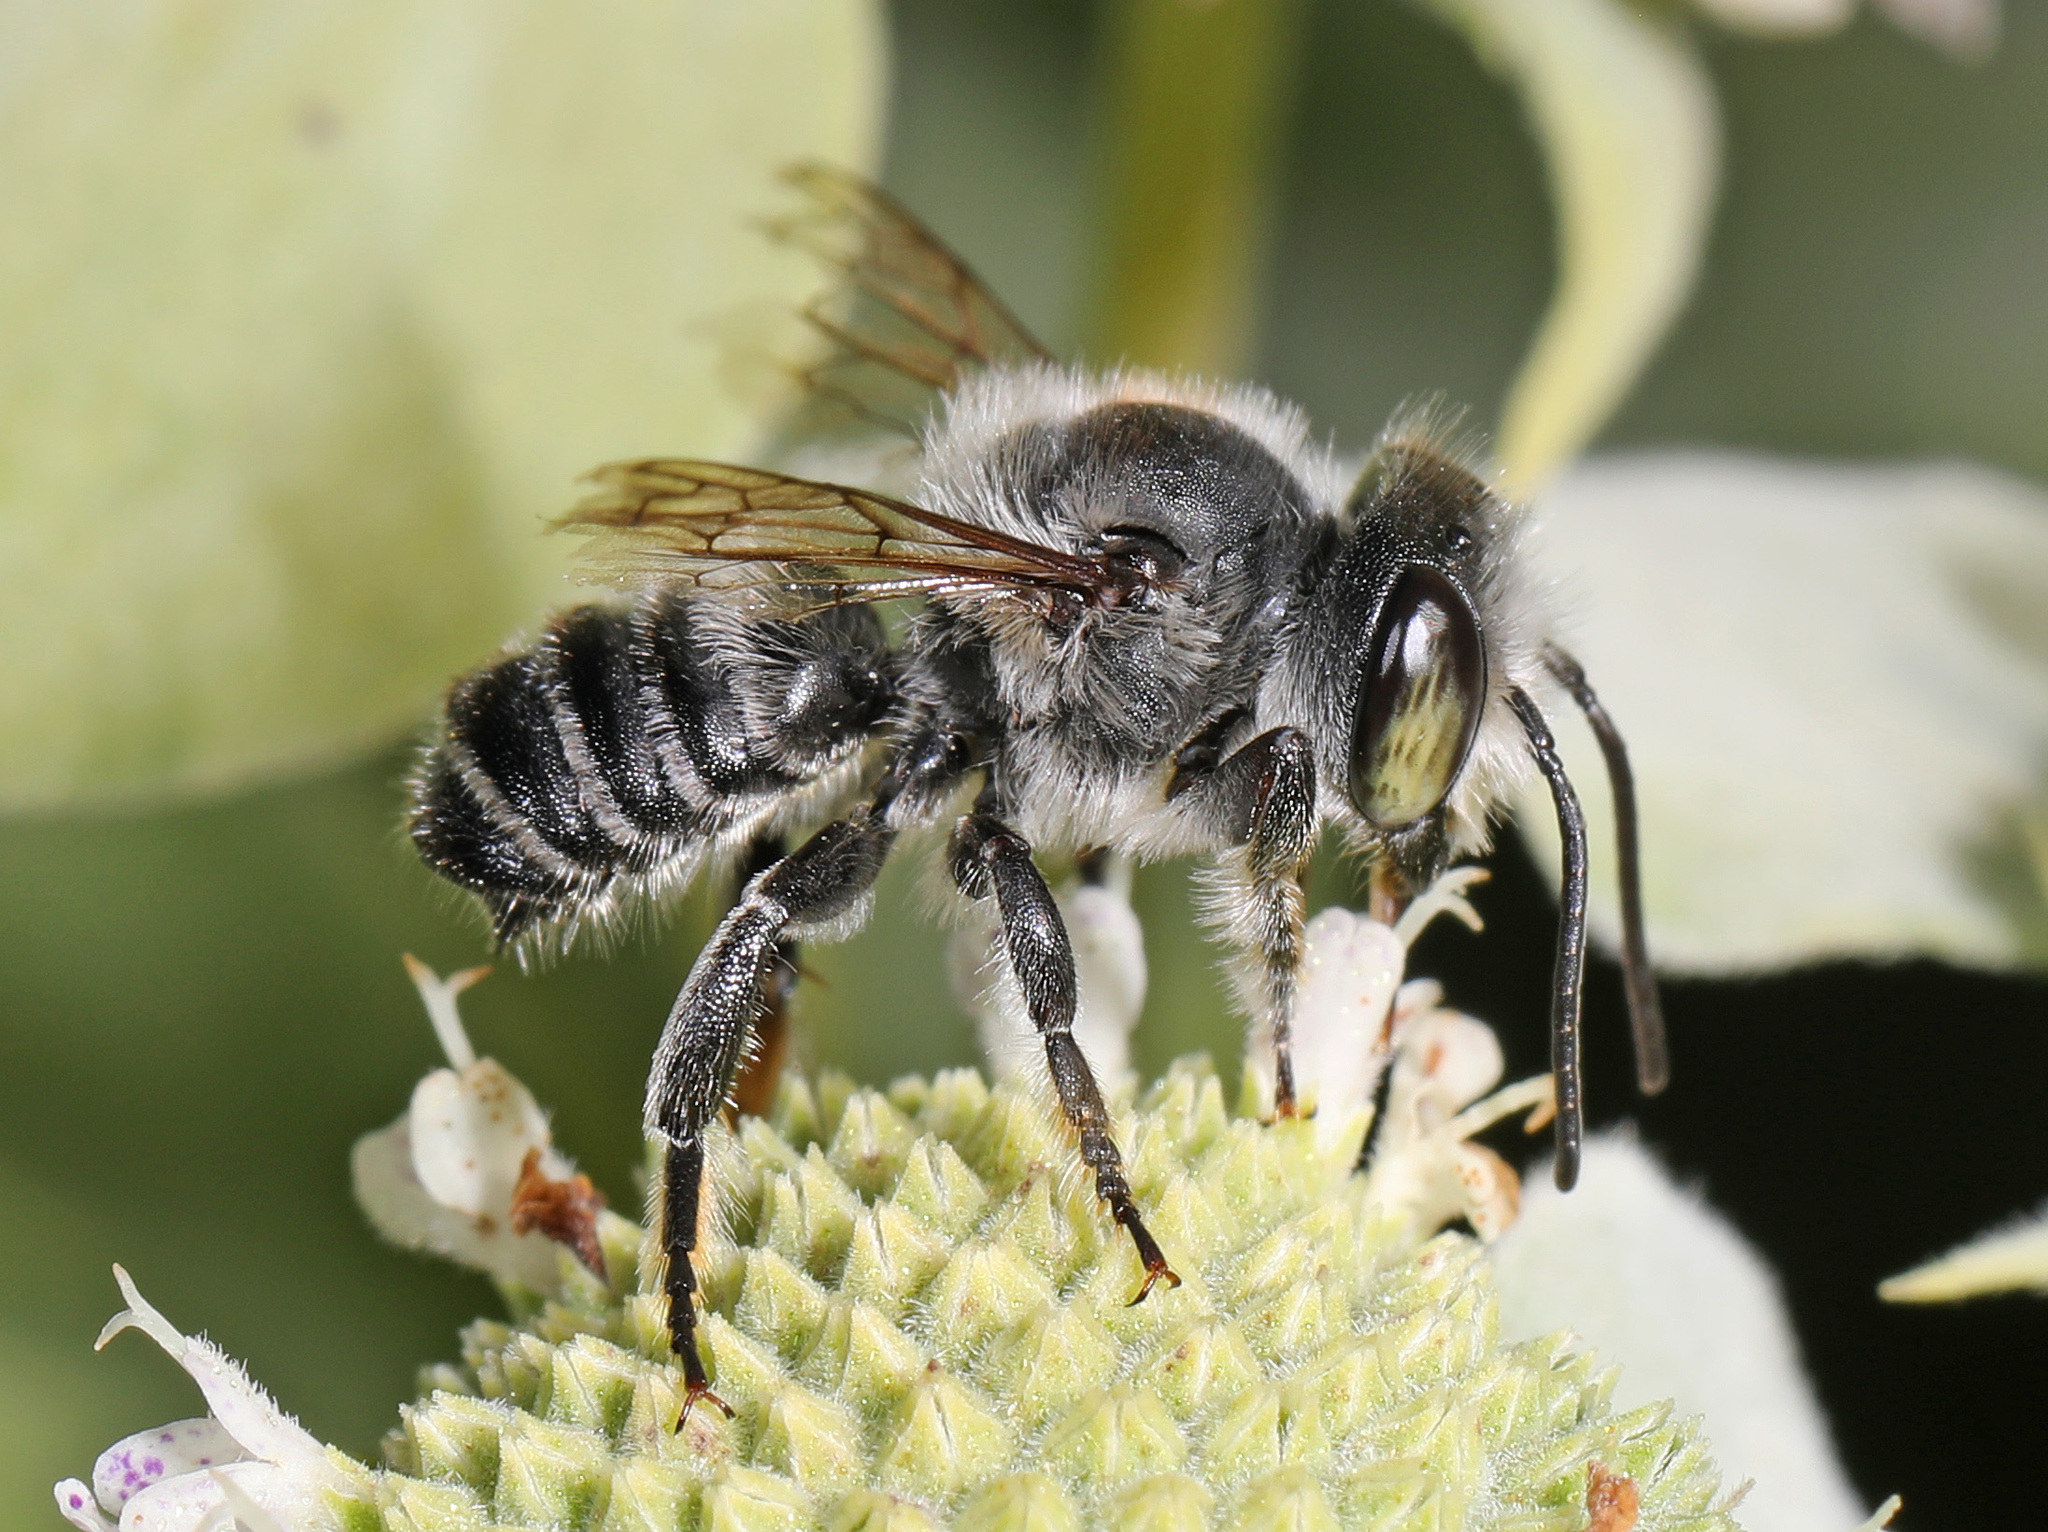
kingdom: Animalia
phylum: Arthropoda
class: Insecta
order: Hymenoptera
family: Megachilidae
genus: Megachile
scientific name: Megachile mendica
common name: Flat-tailed leafcutter
